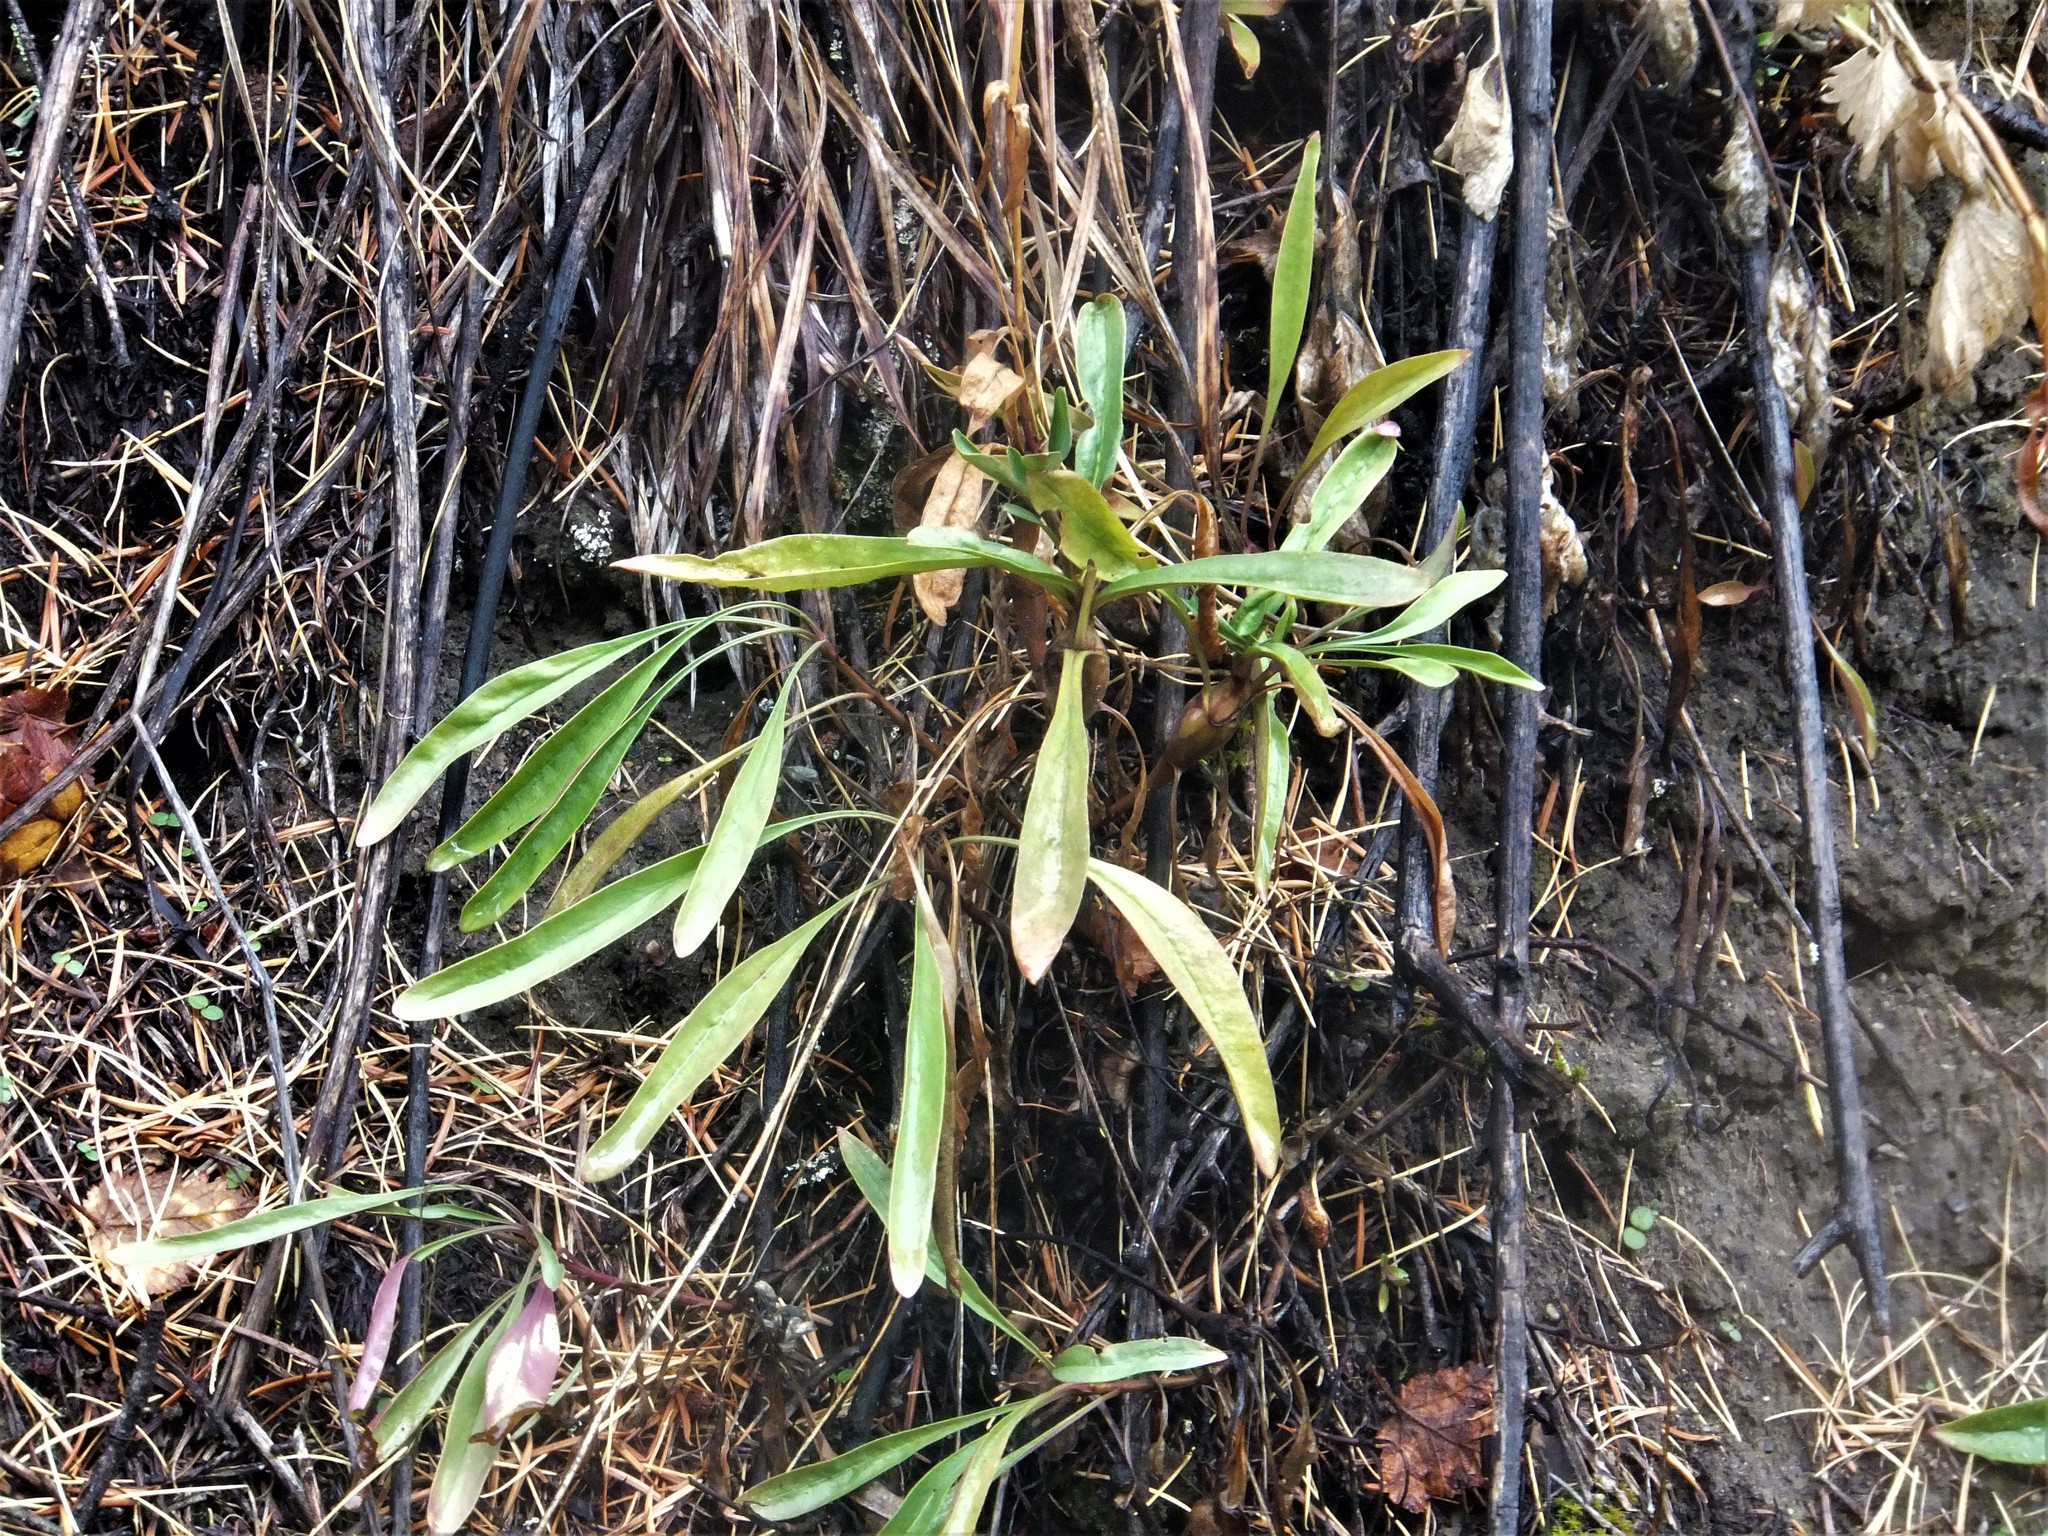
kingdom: Plantae
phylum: Tracheophyta
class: Magnoliopsida
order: Lamiales
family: Plantaginaceae
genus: Penstemon
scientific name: Penstemon confertus
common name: Lesser yellow beardtongue
